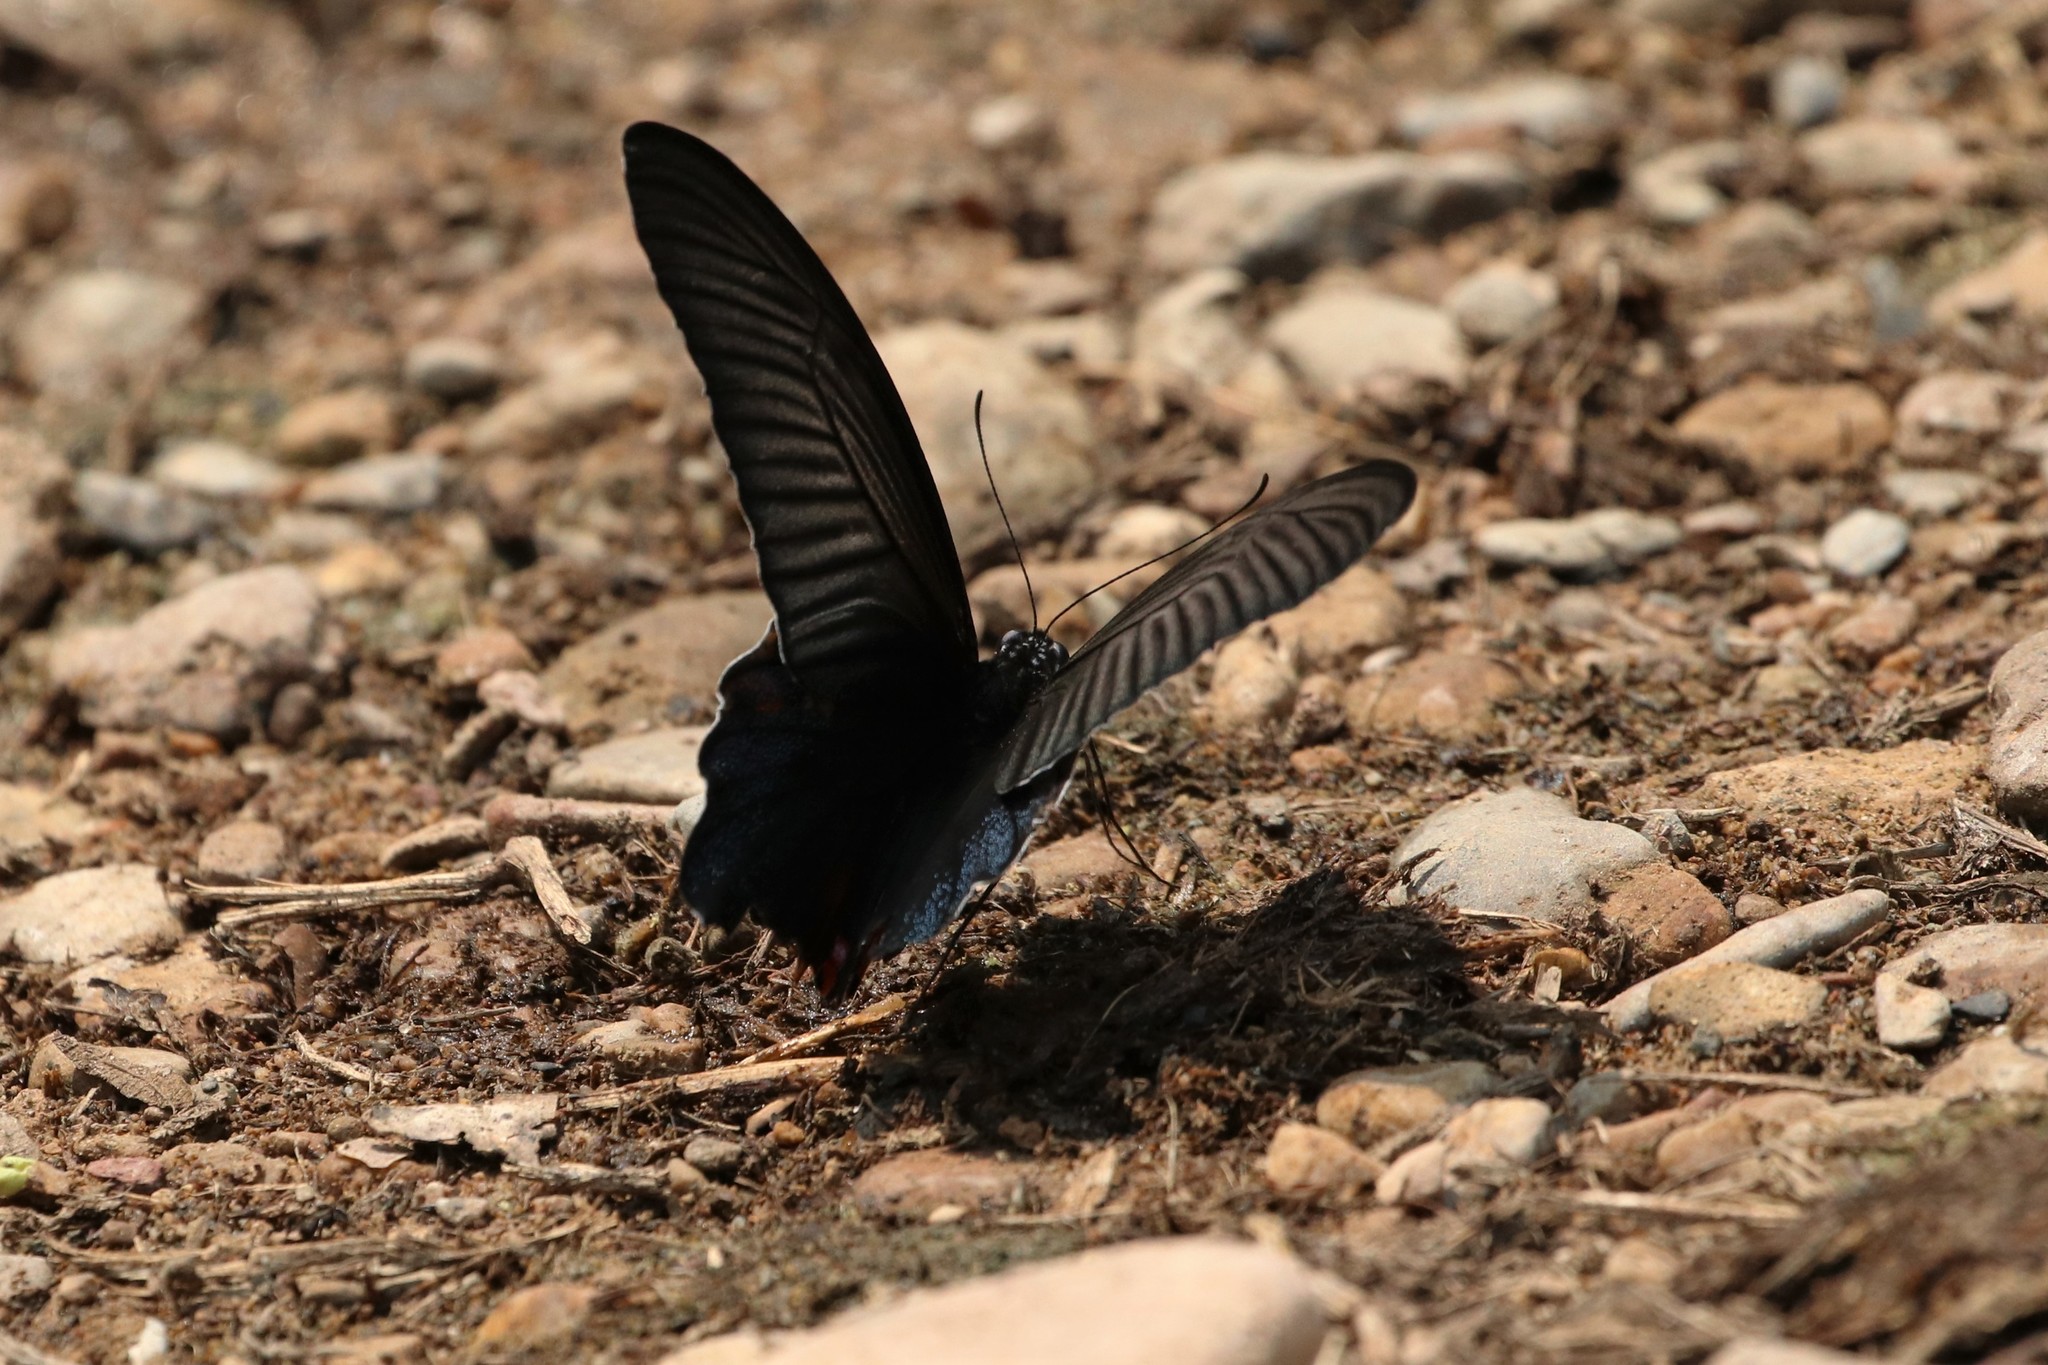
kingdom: Animalia
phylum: Arthropoda
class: Insecta
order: Lepidoptera
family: Papilionidae
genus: Papilio
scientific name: Papilio protenor
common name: Spangle
